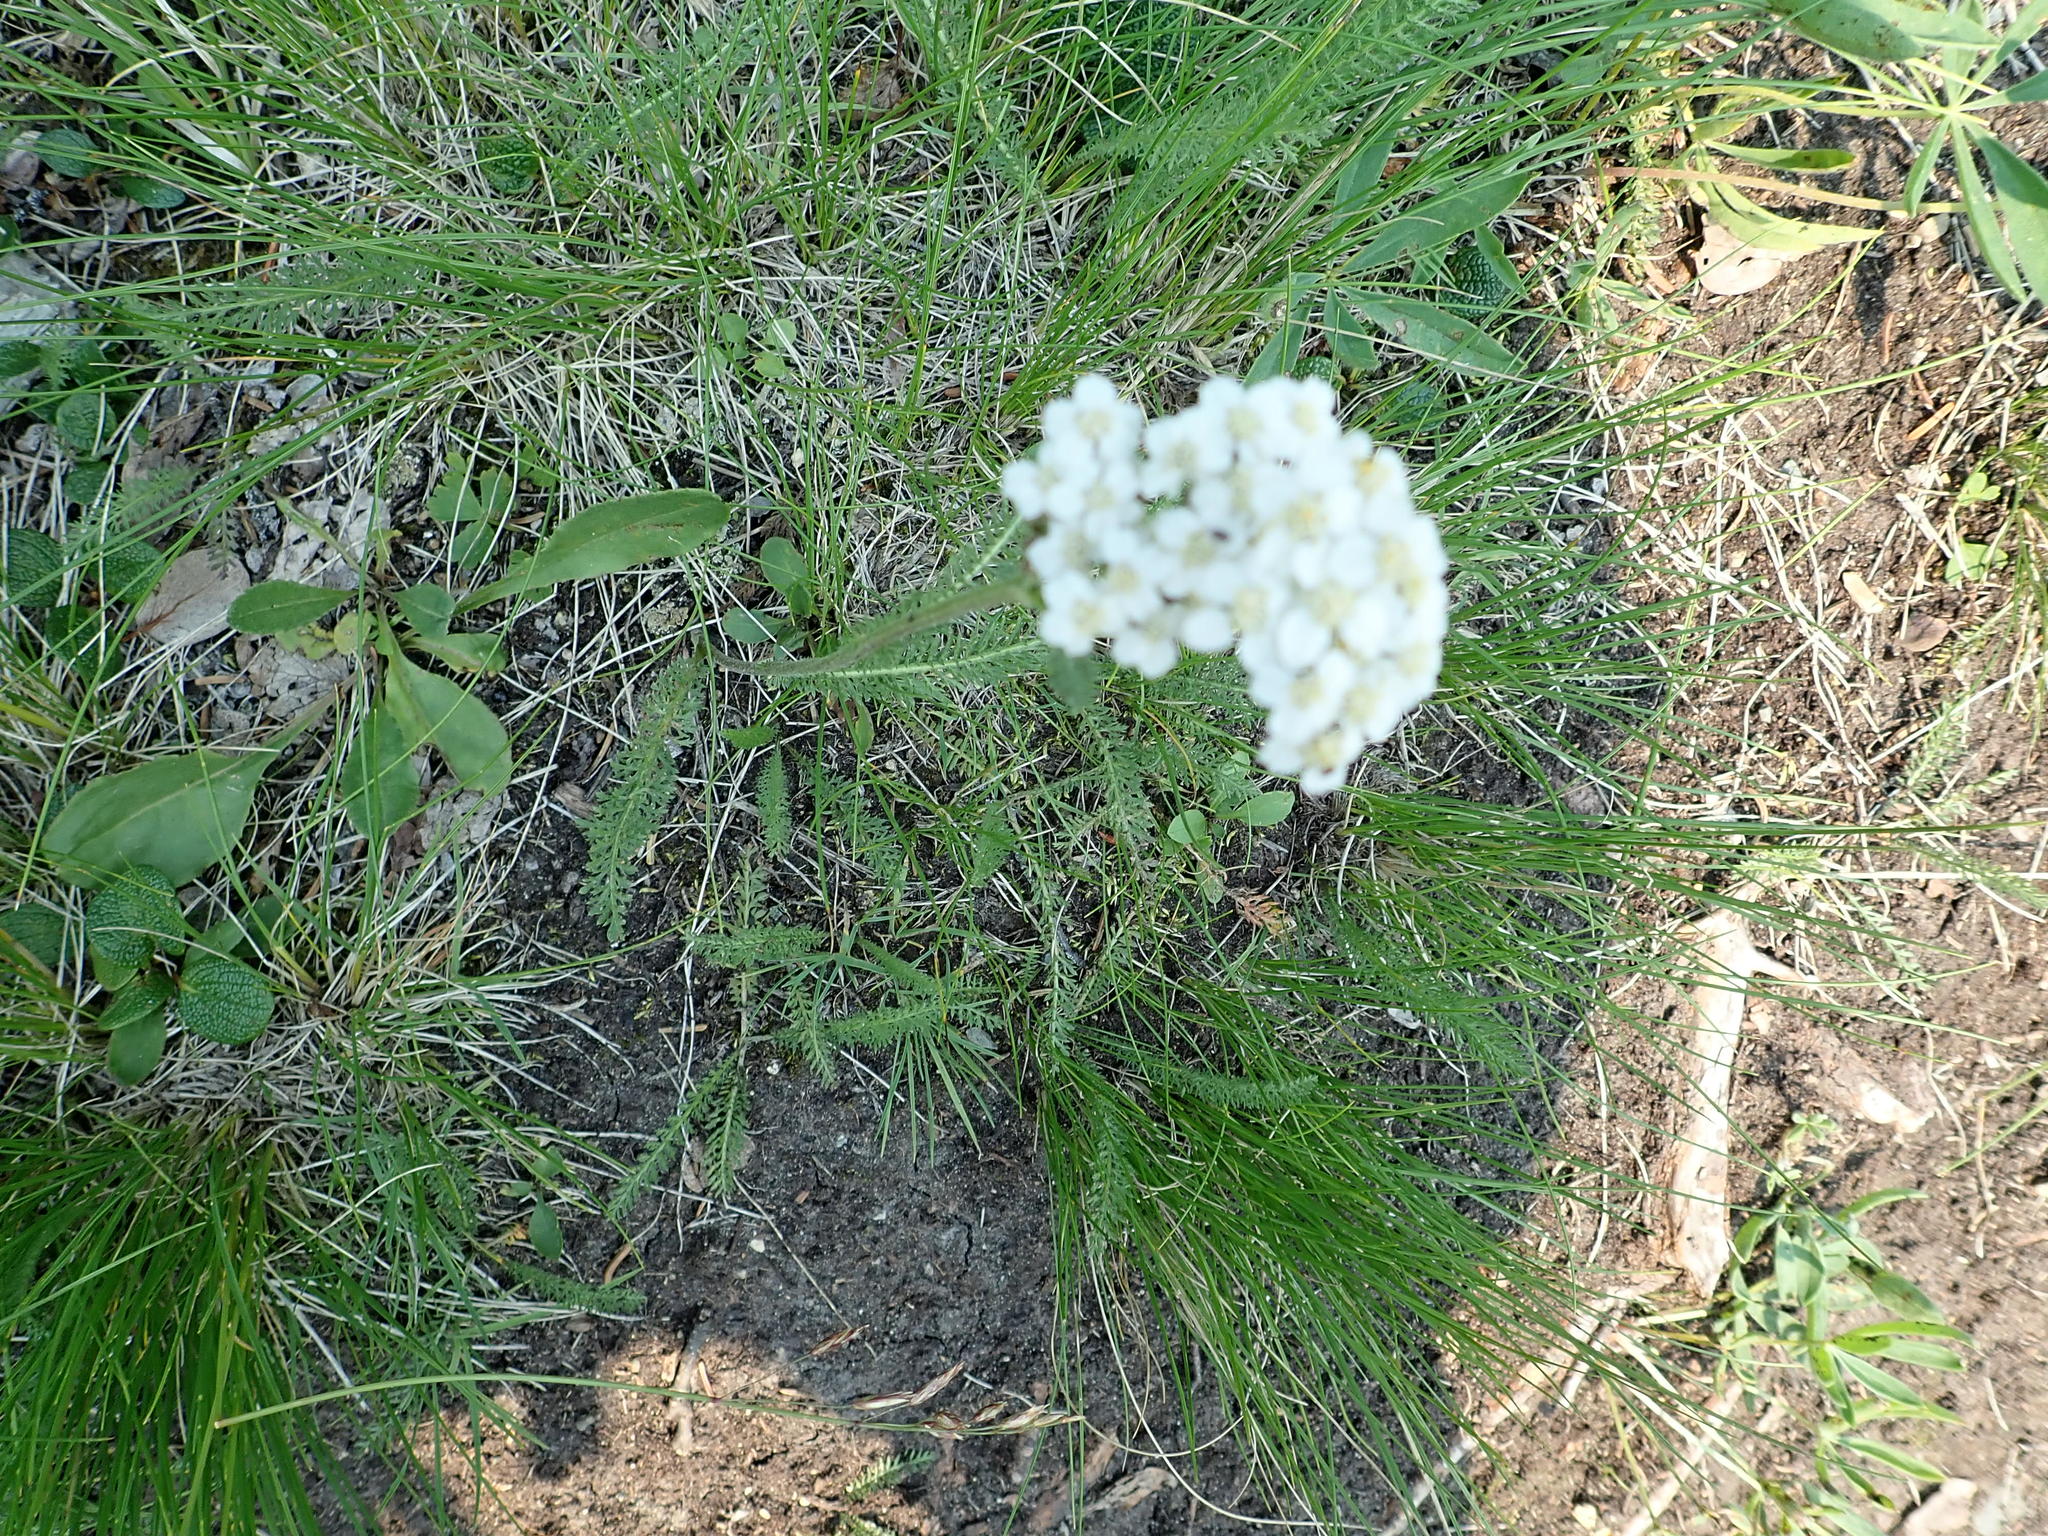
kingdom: Plantae
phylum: Tracheophyta
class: Magnoliopsida
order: Asterales
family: Asteraceae
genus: Achillea
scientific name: Achillea millefolium
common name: Yarrow
